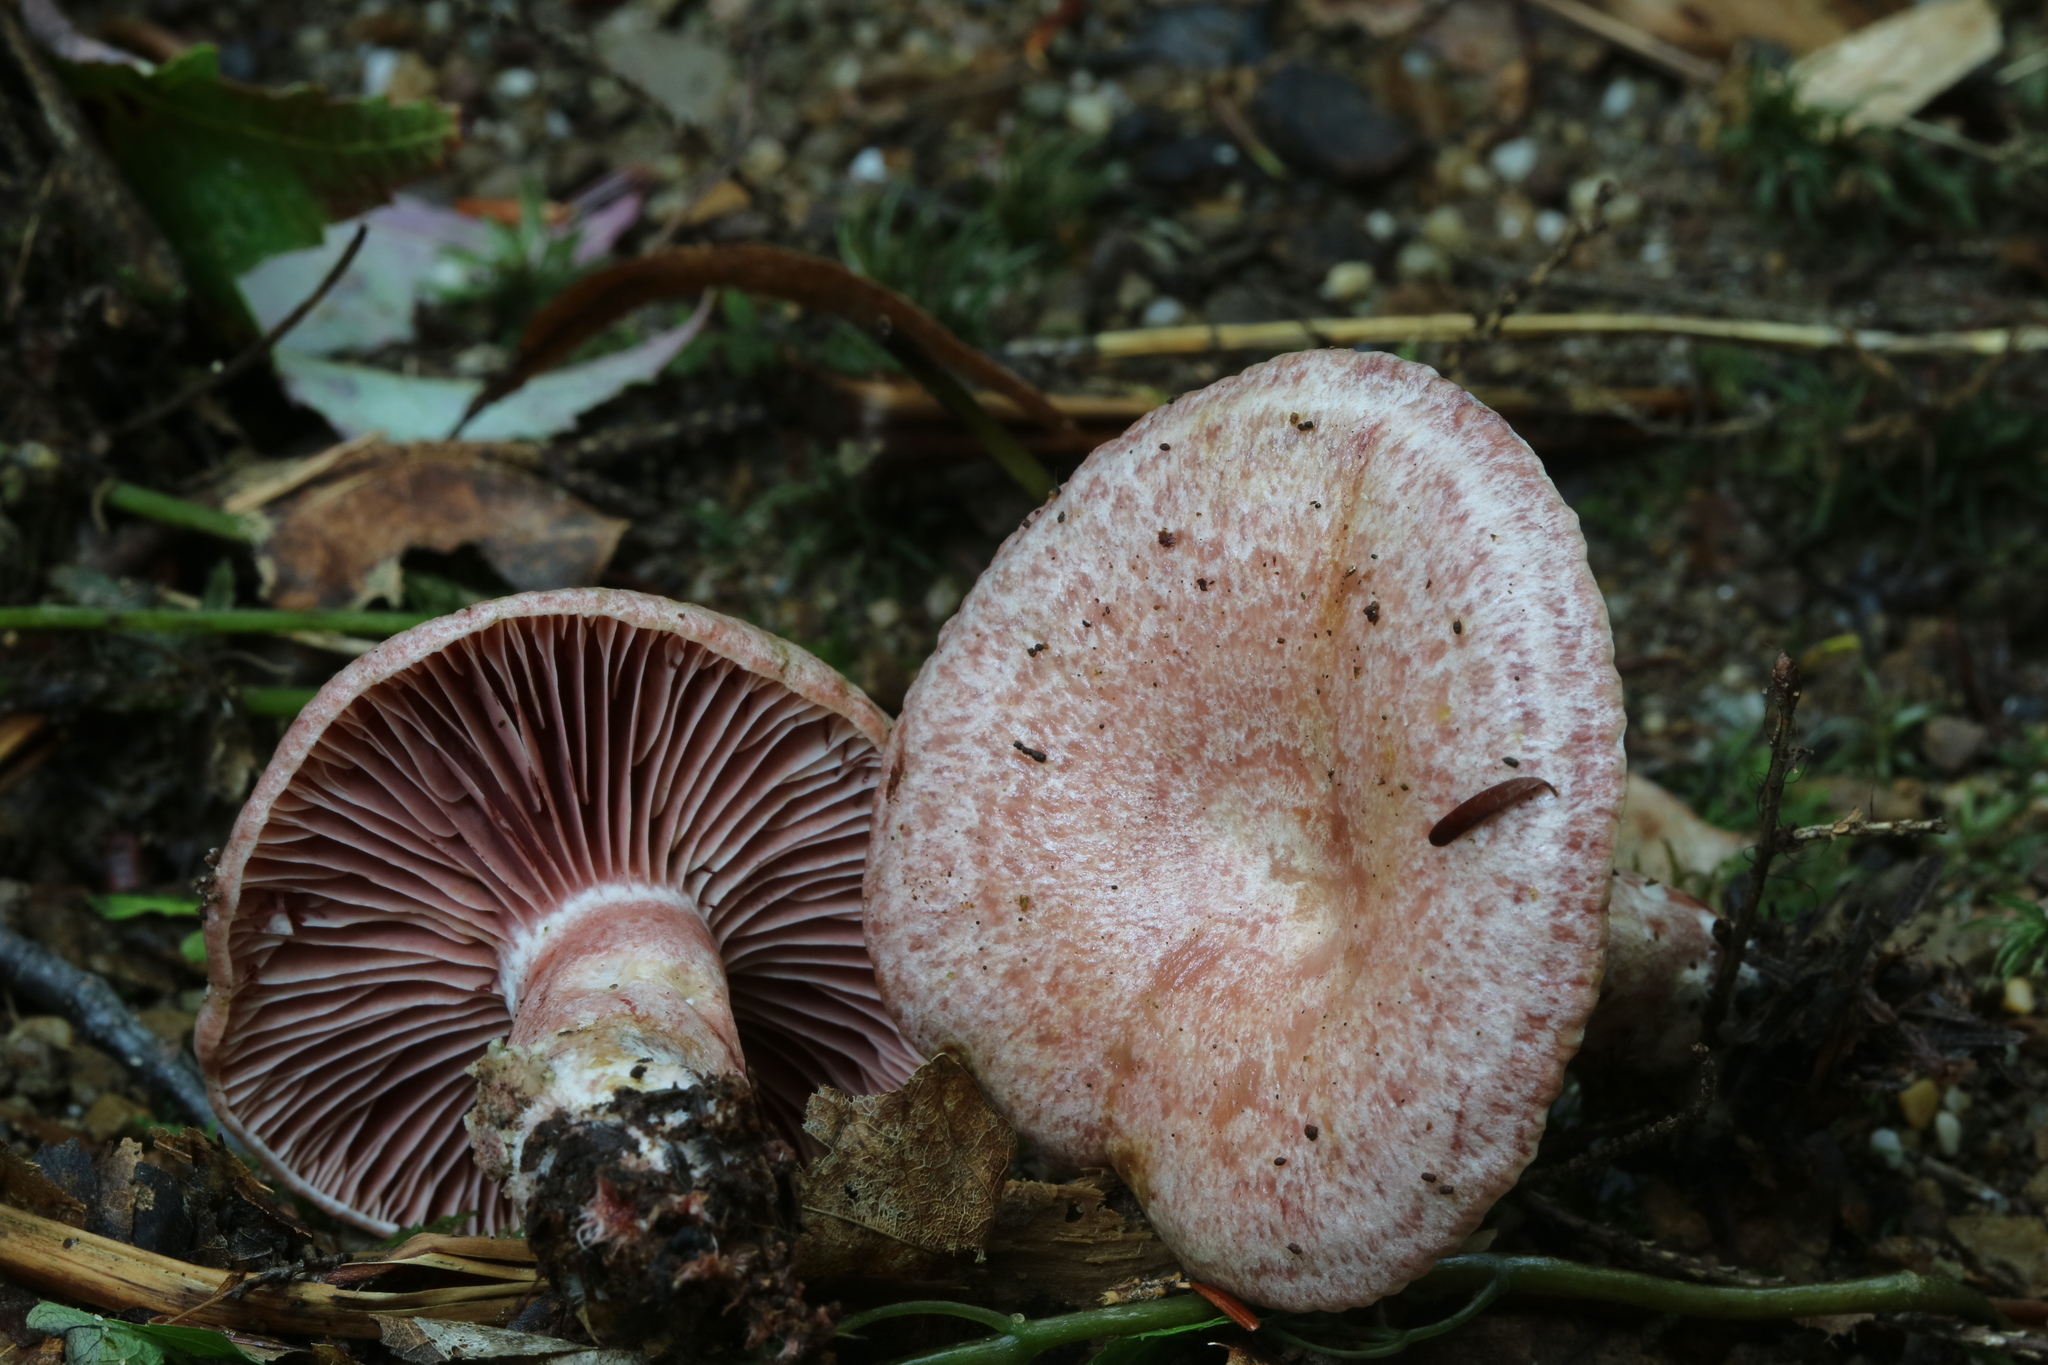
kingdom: Fungi
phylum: Basidiomycota
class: Agaricomycetes
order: Russulales
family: Russulaceae
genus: Lactarius
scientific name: Lactarius subpurpureus
